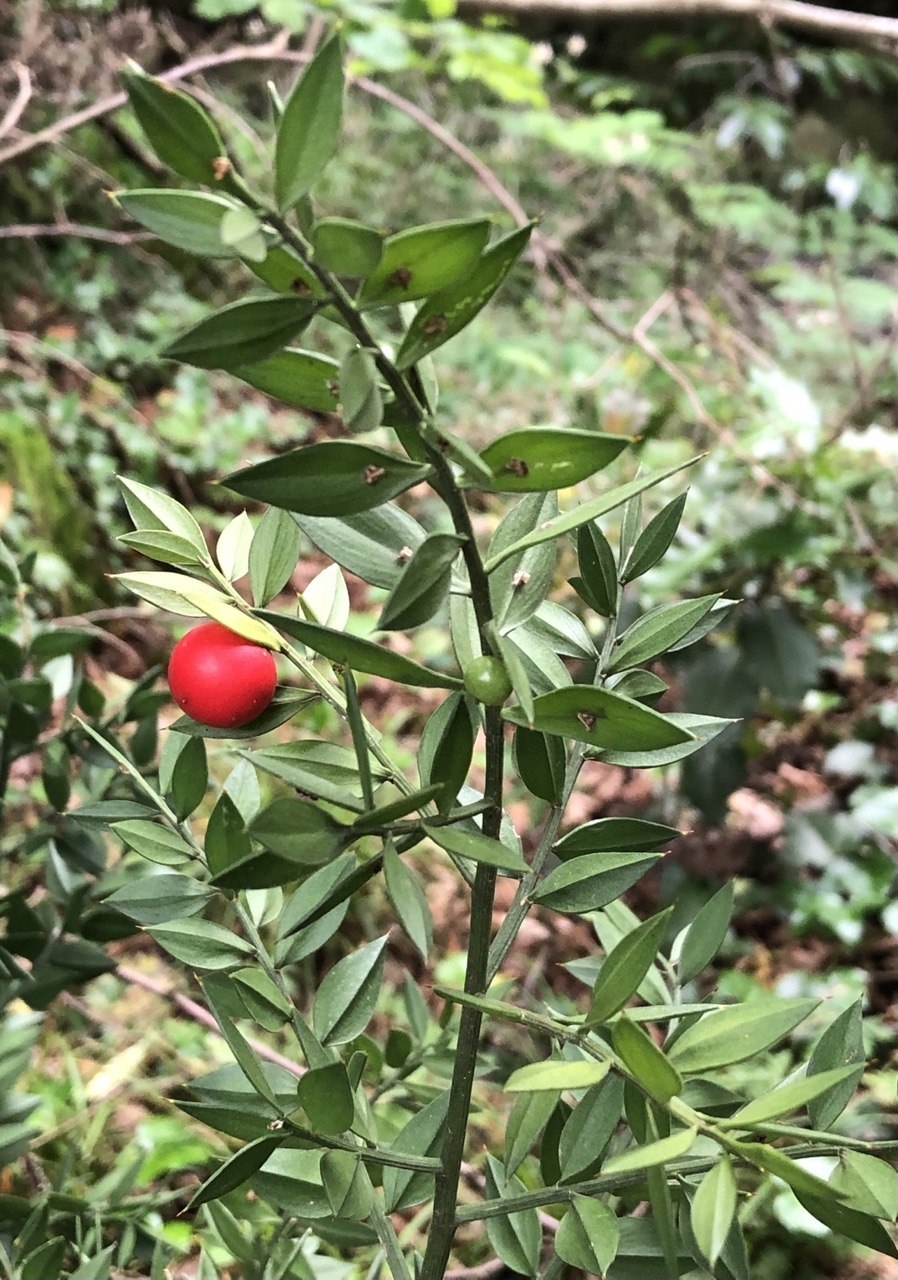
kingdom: Plantae
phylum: Tracheophyta
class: Liliopsida
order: Asparagales
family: Asparagaceae
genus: Ruscus
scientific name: Ruscus aculeatus
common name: Butcher's-broom
